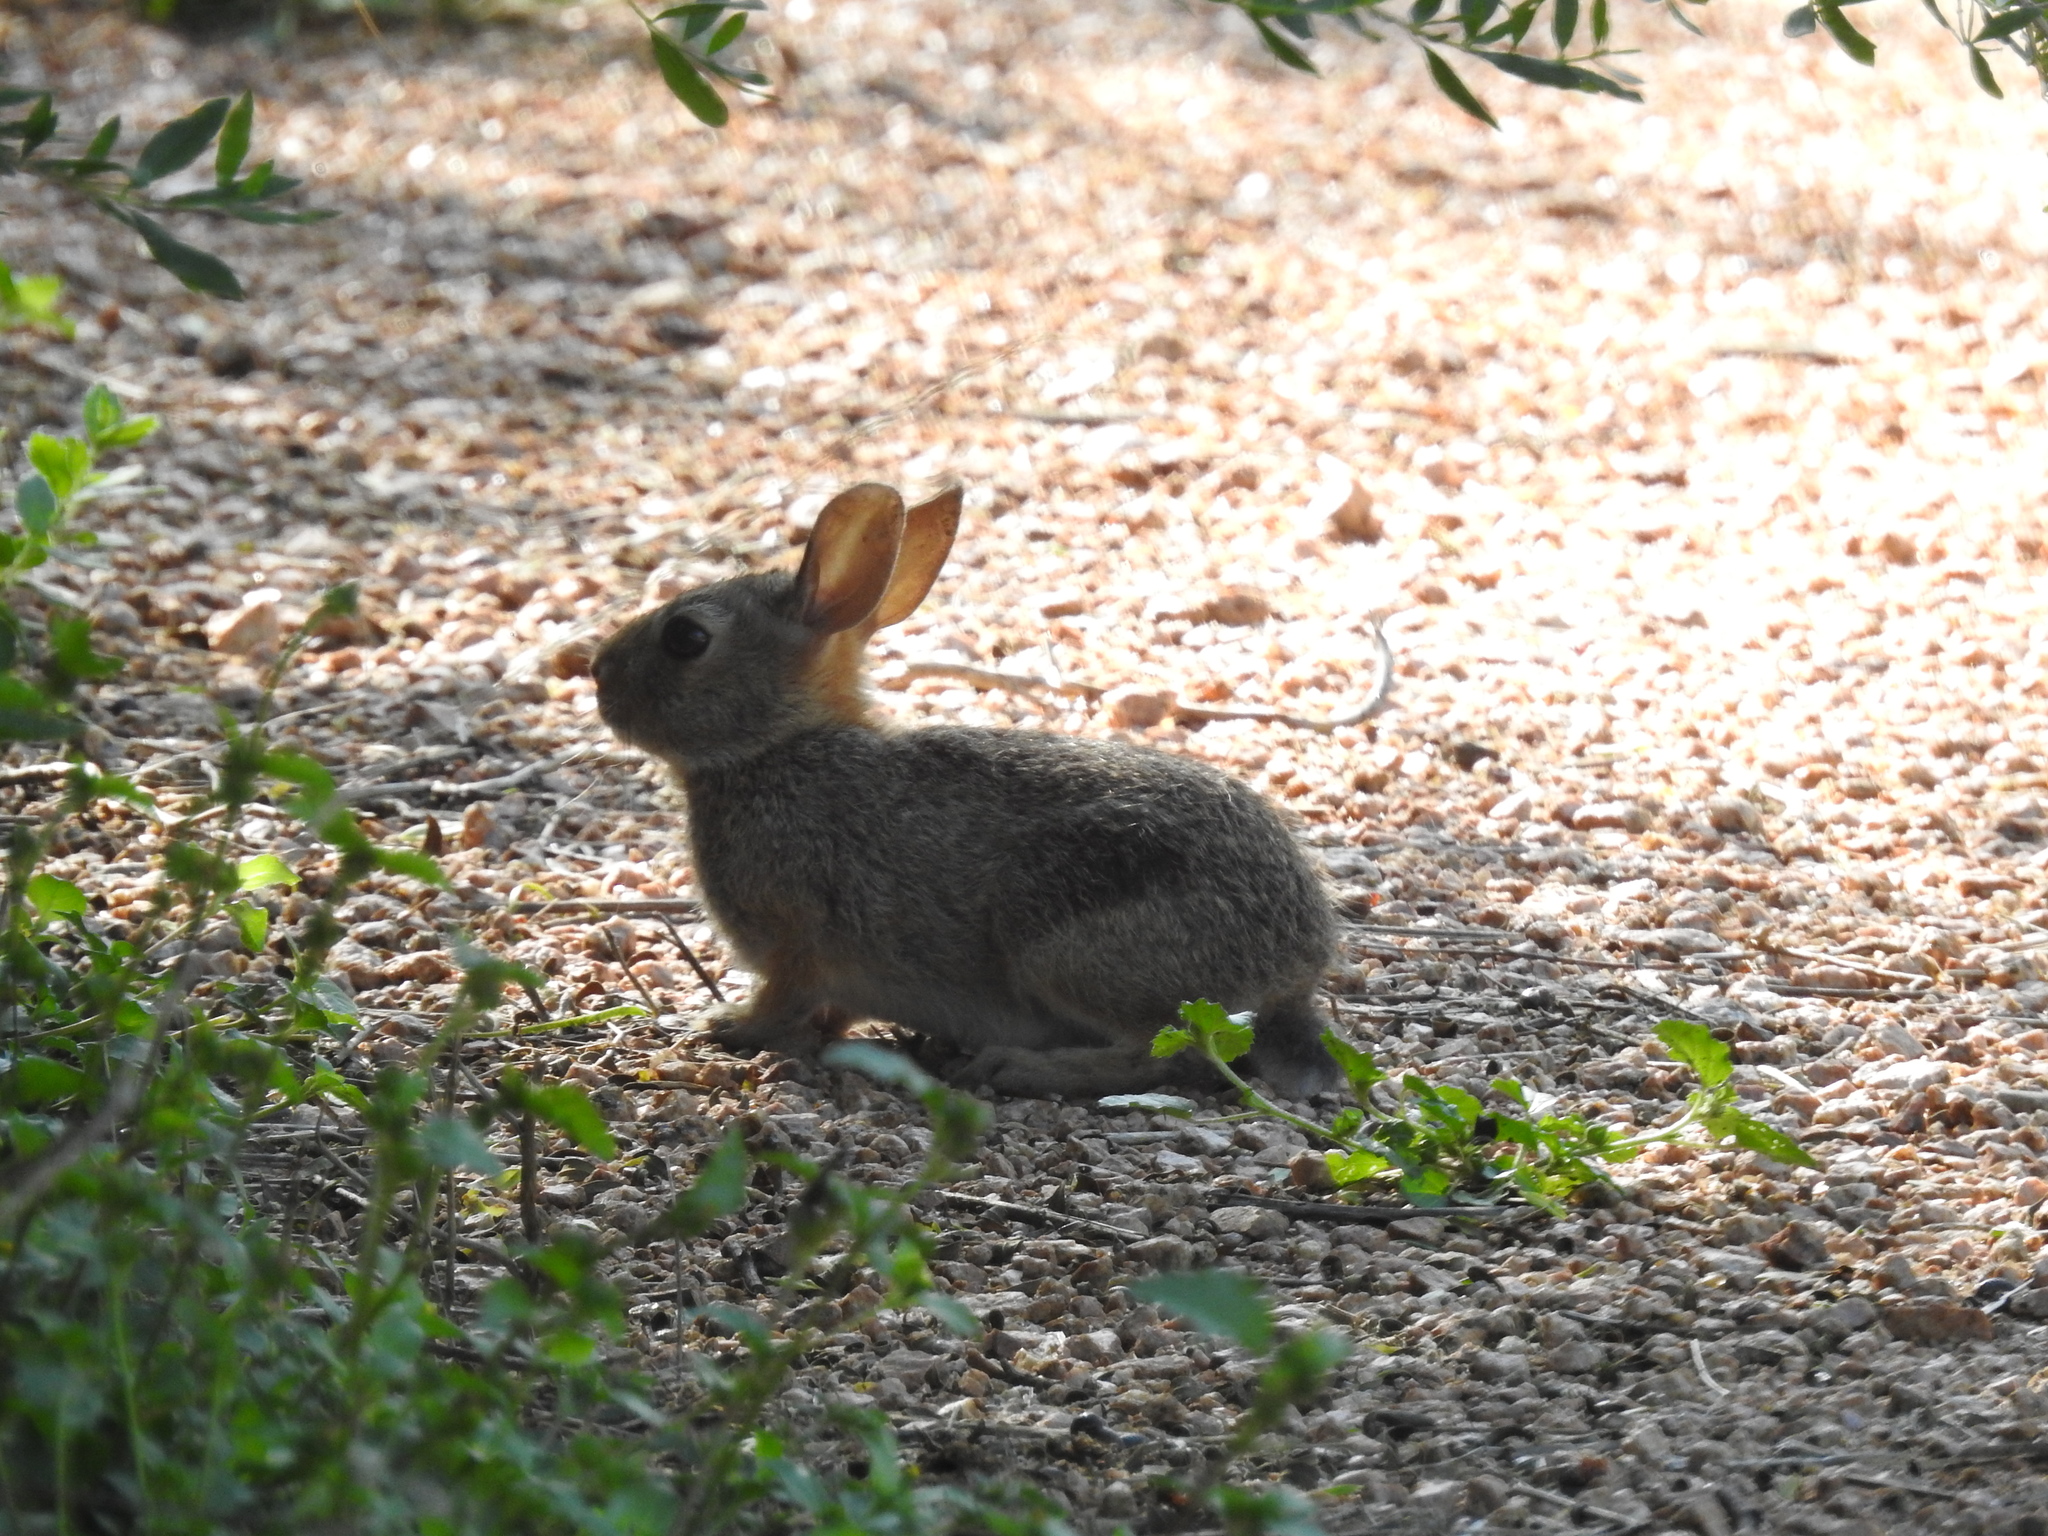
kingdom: Animalia
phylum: Chordata
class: Mammalia
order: Lagomorpha
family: Leporidae
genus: Sylvilagus
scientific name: Sylvilagus floridanus
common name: Eastern cottontail
